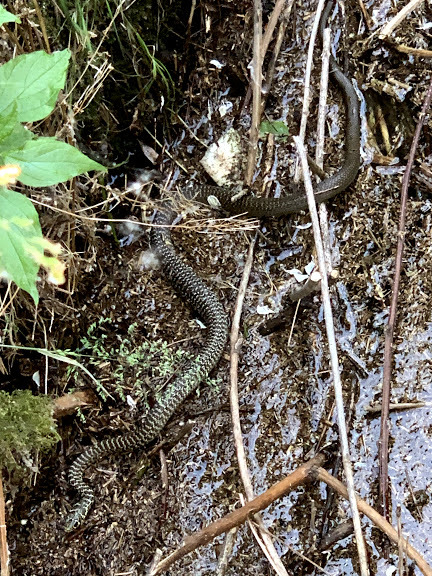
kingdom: Animalia
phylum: Chordata
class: Squamata
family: Colubridae
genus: Hierophis
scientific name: Hierophis viridiflavus
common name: Green whip snake
